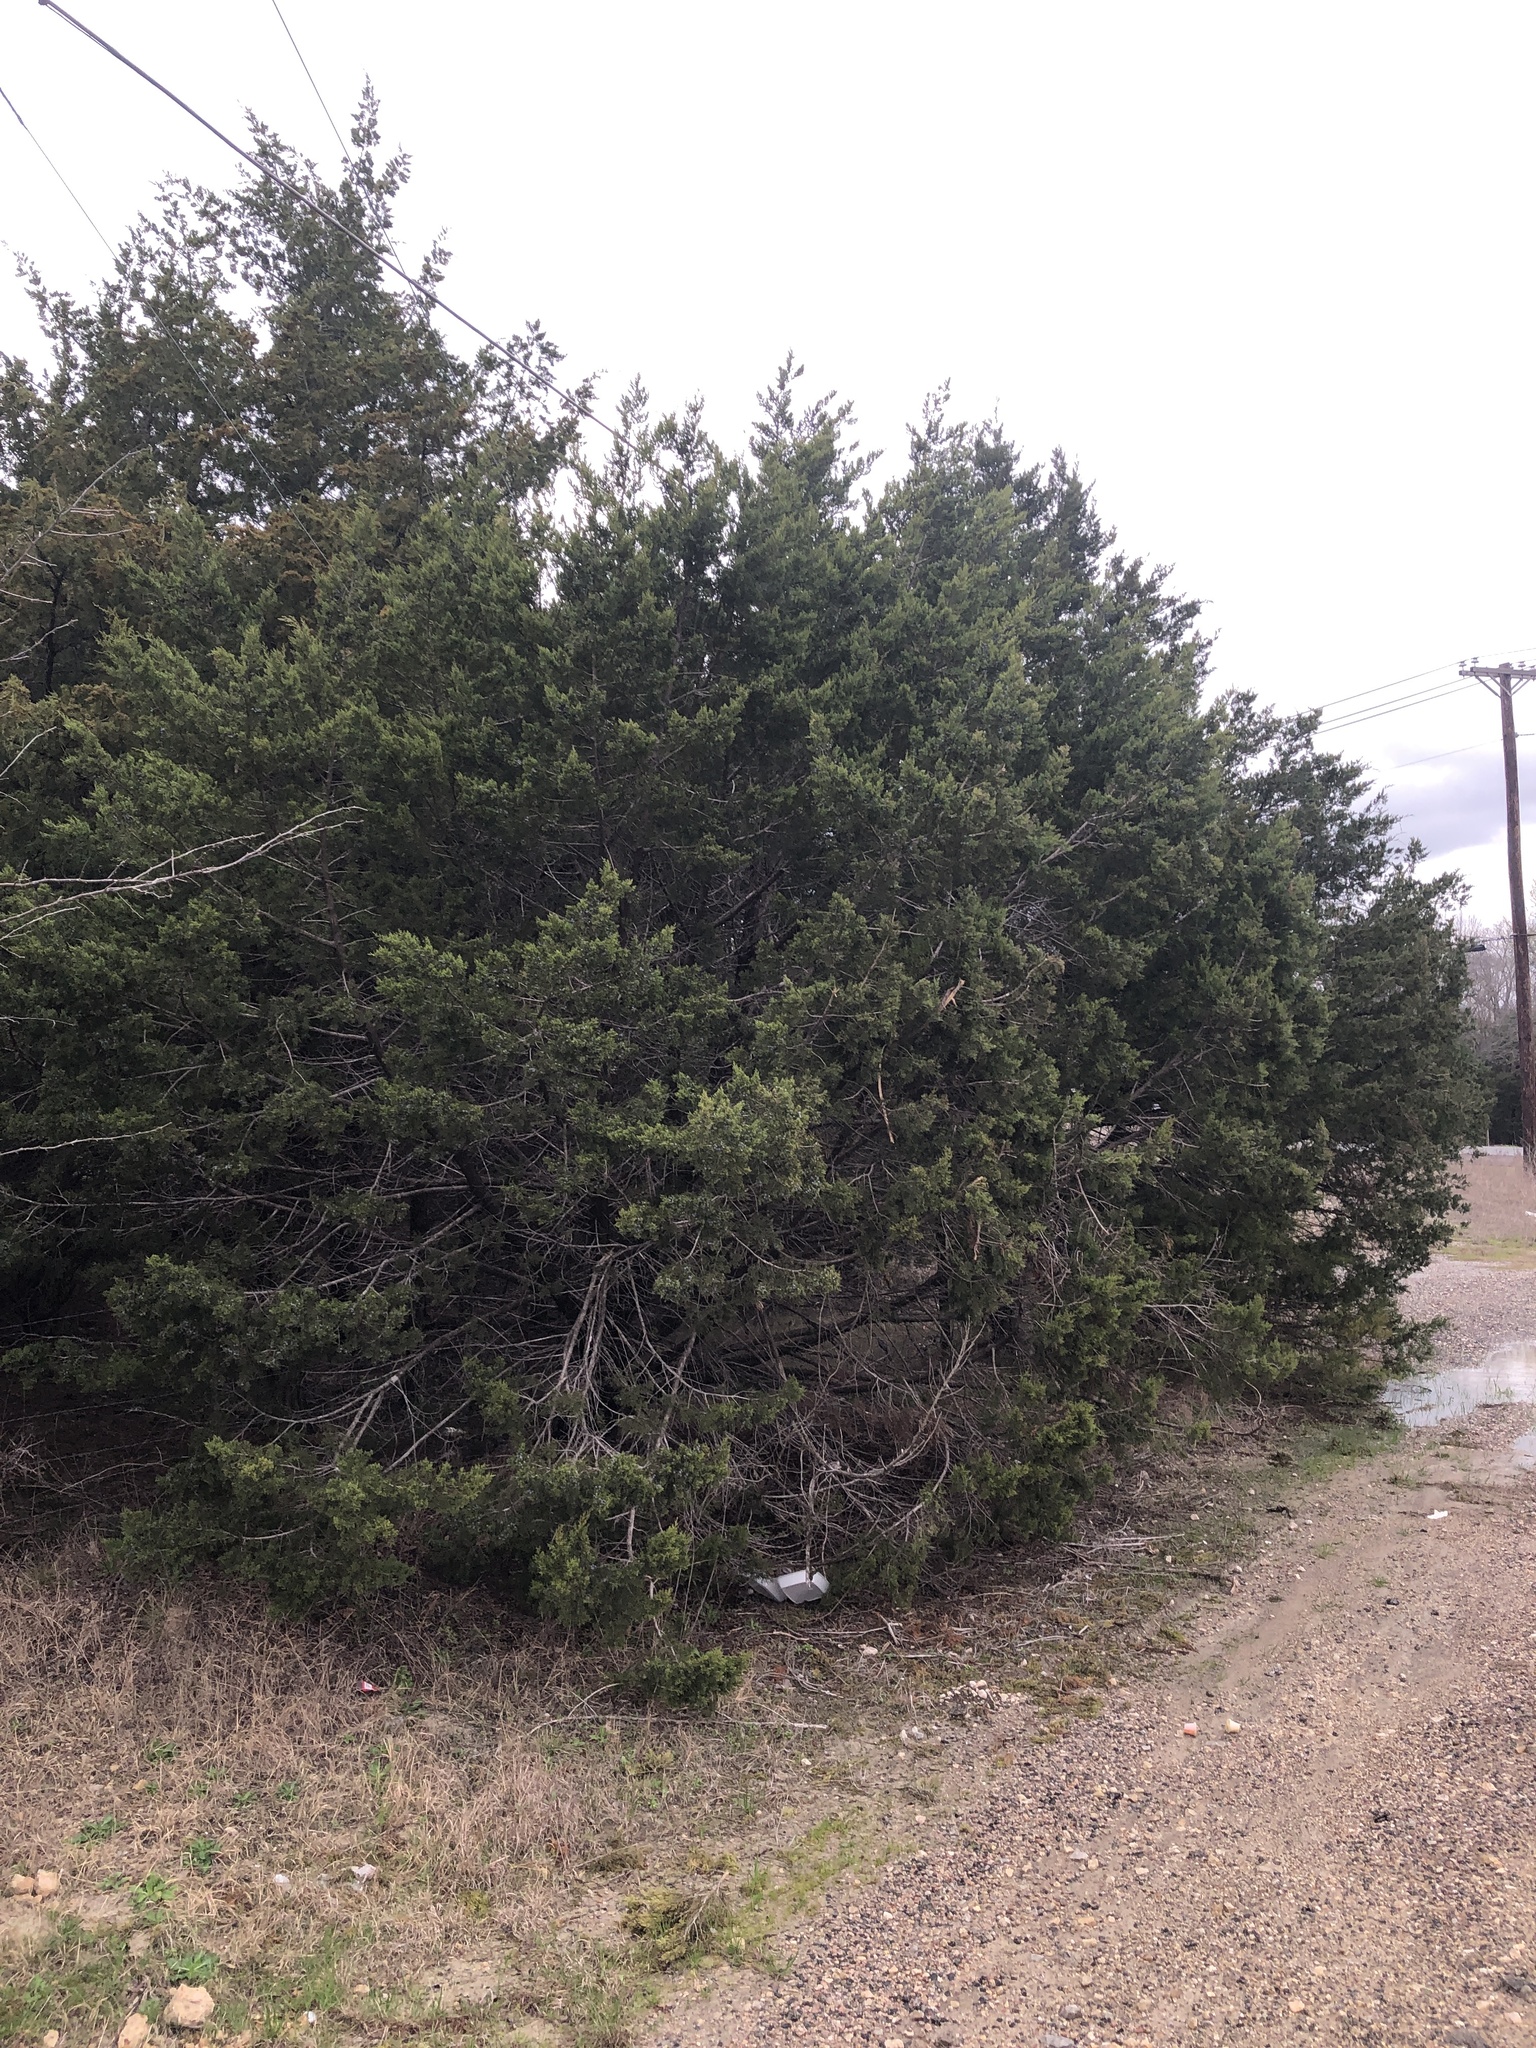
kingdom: Plantae
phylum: Tracheophyta
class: Pinopsida
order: Pinales
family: Cupressaceae
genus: Juniperus
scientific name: Juniperus ashei
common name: Mexican juniper
